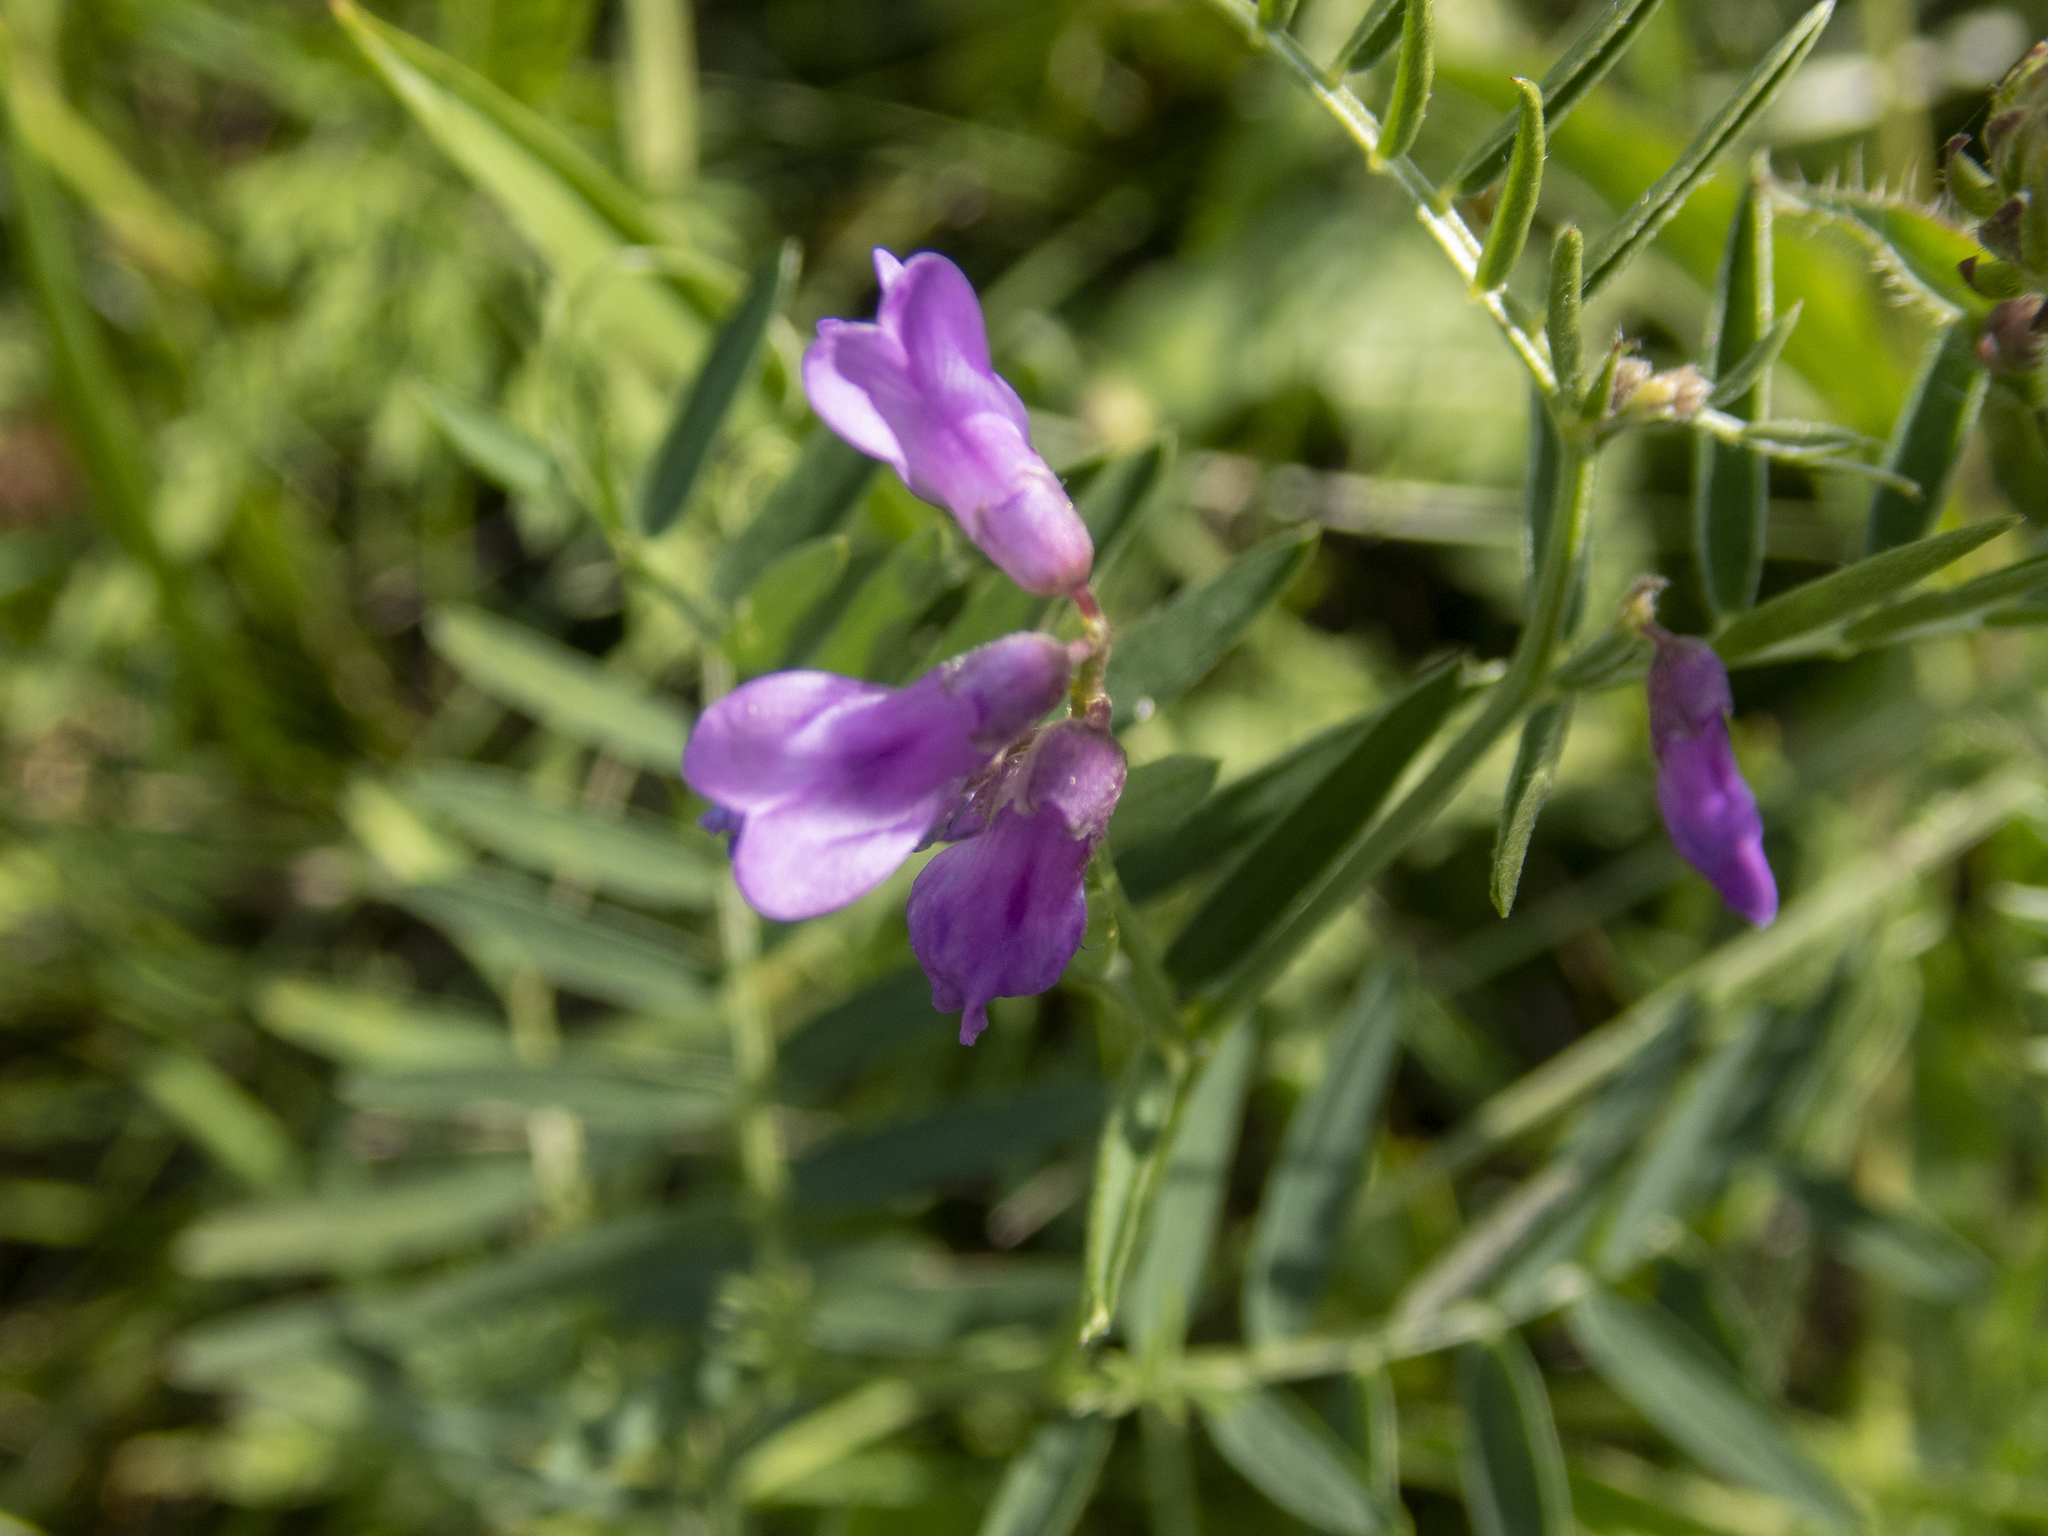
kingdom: Plantae
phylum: Tracheophyta
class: Magnoliopsida
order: Fabales
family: Fabaceae
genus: Vicia
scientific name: Vicia cracca
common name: Bird vetch
